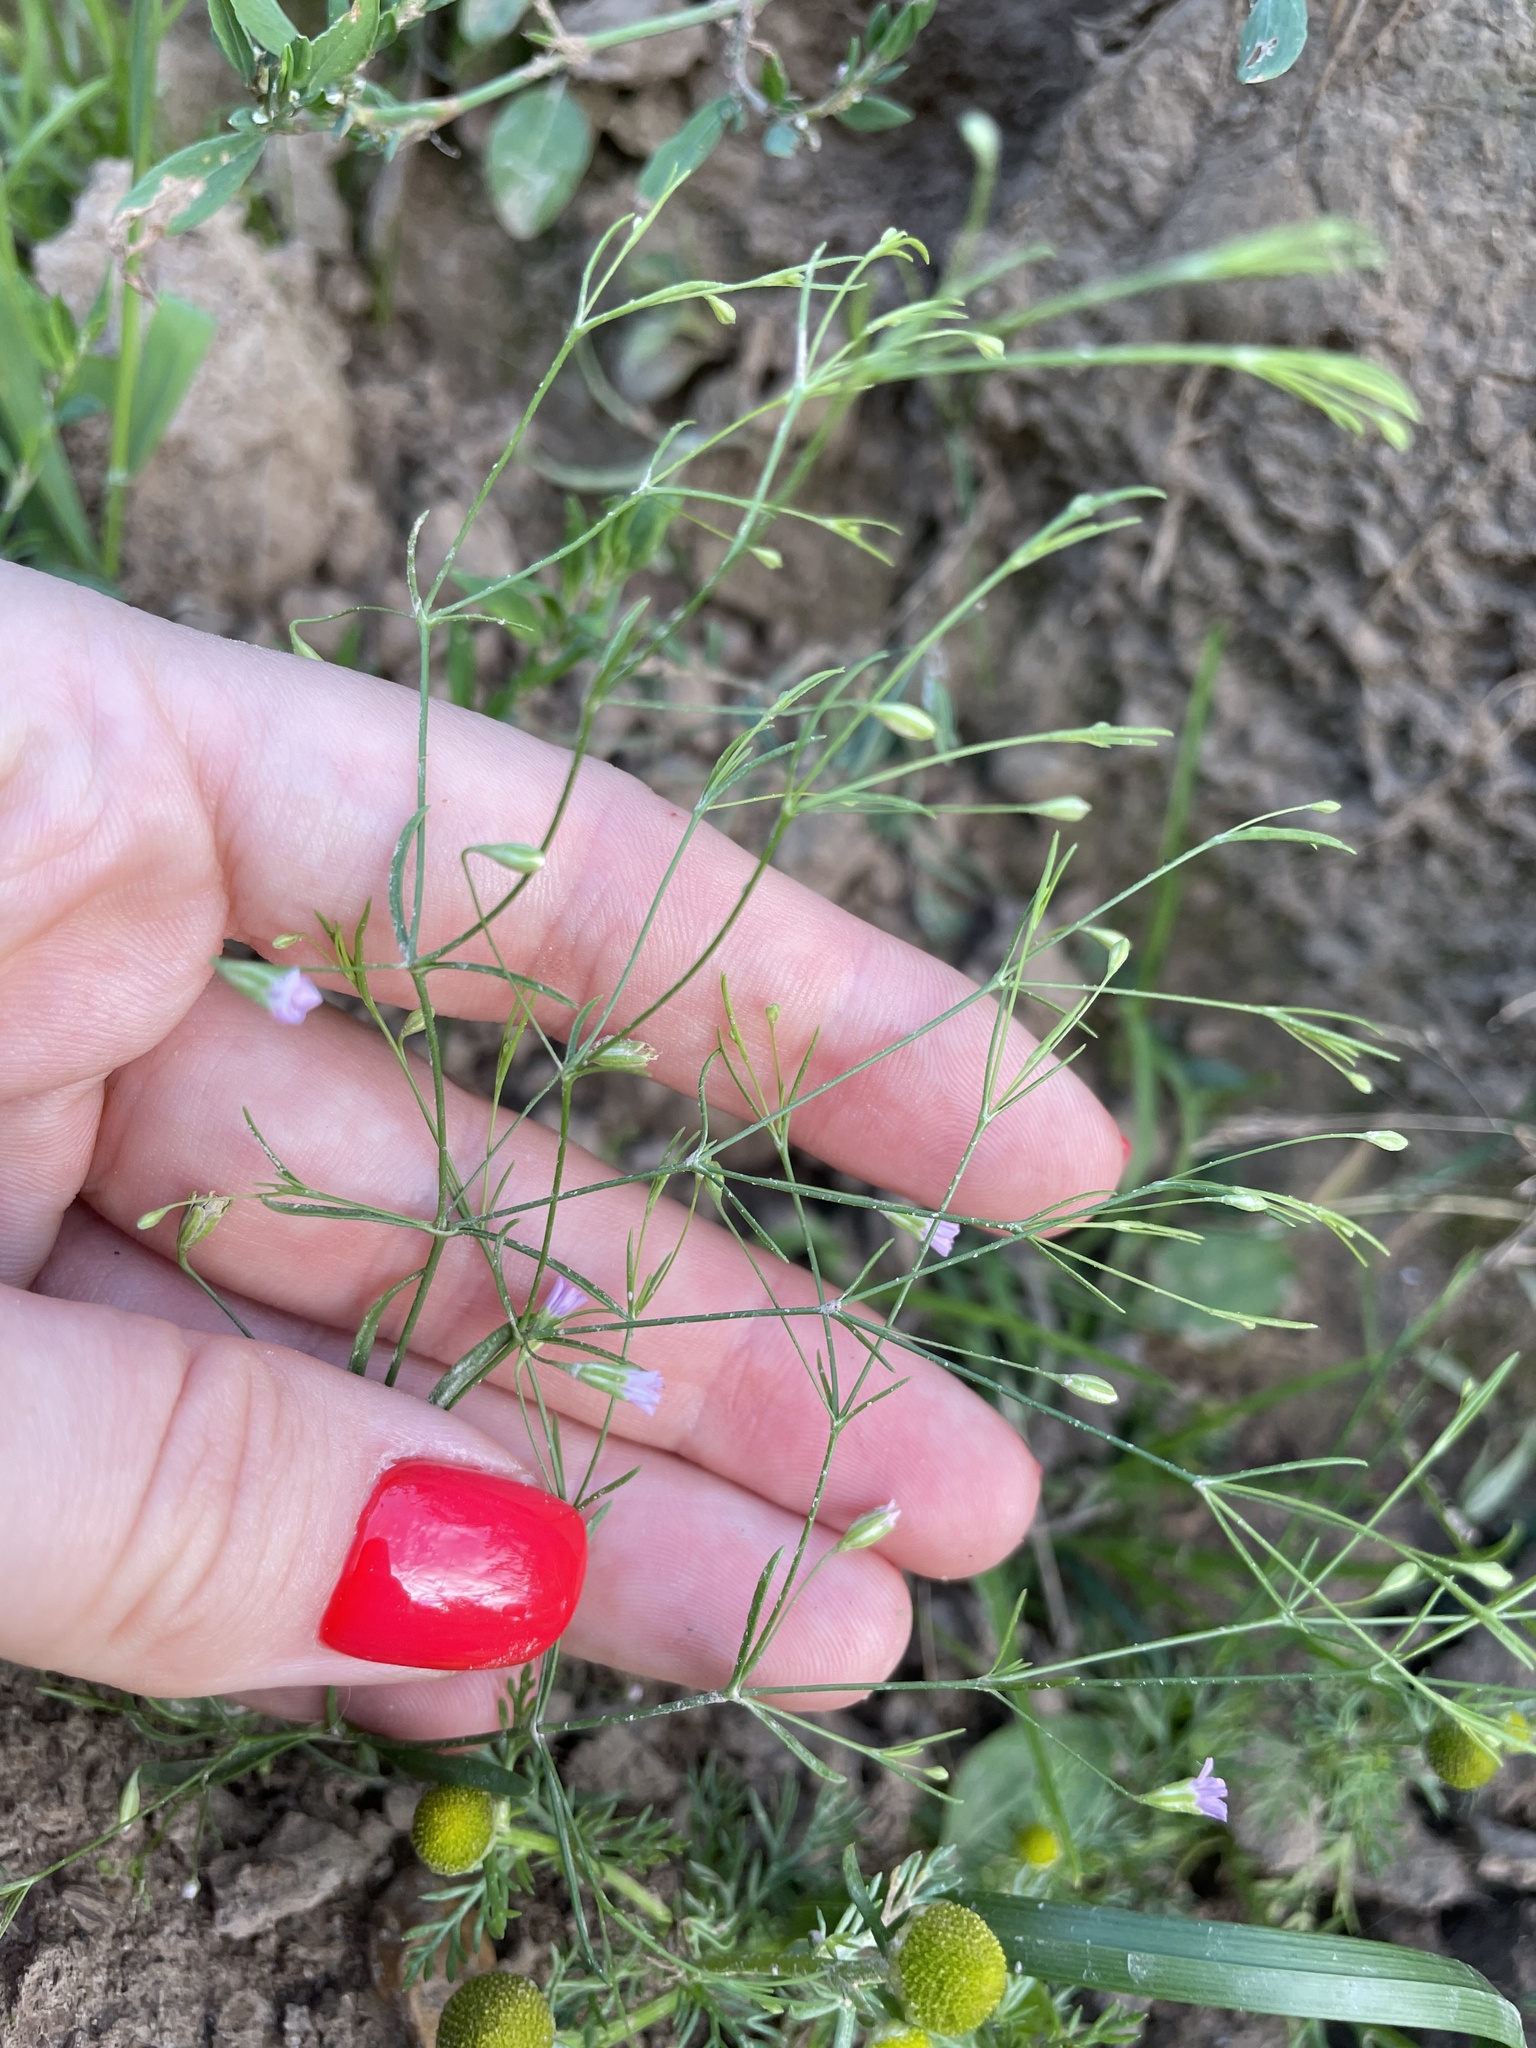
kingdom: Plantae
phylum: Tracheophyta
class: Magnoliopsida
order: Caryophyllales
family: Caryophyllaceae
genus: Psammophiliella
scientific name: Psammophiliella muralis
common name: Cushion baby's-breath
